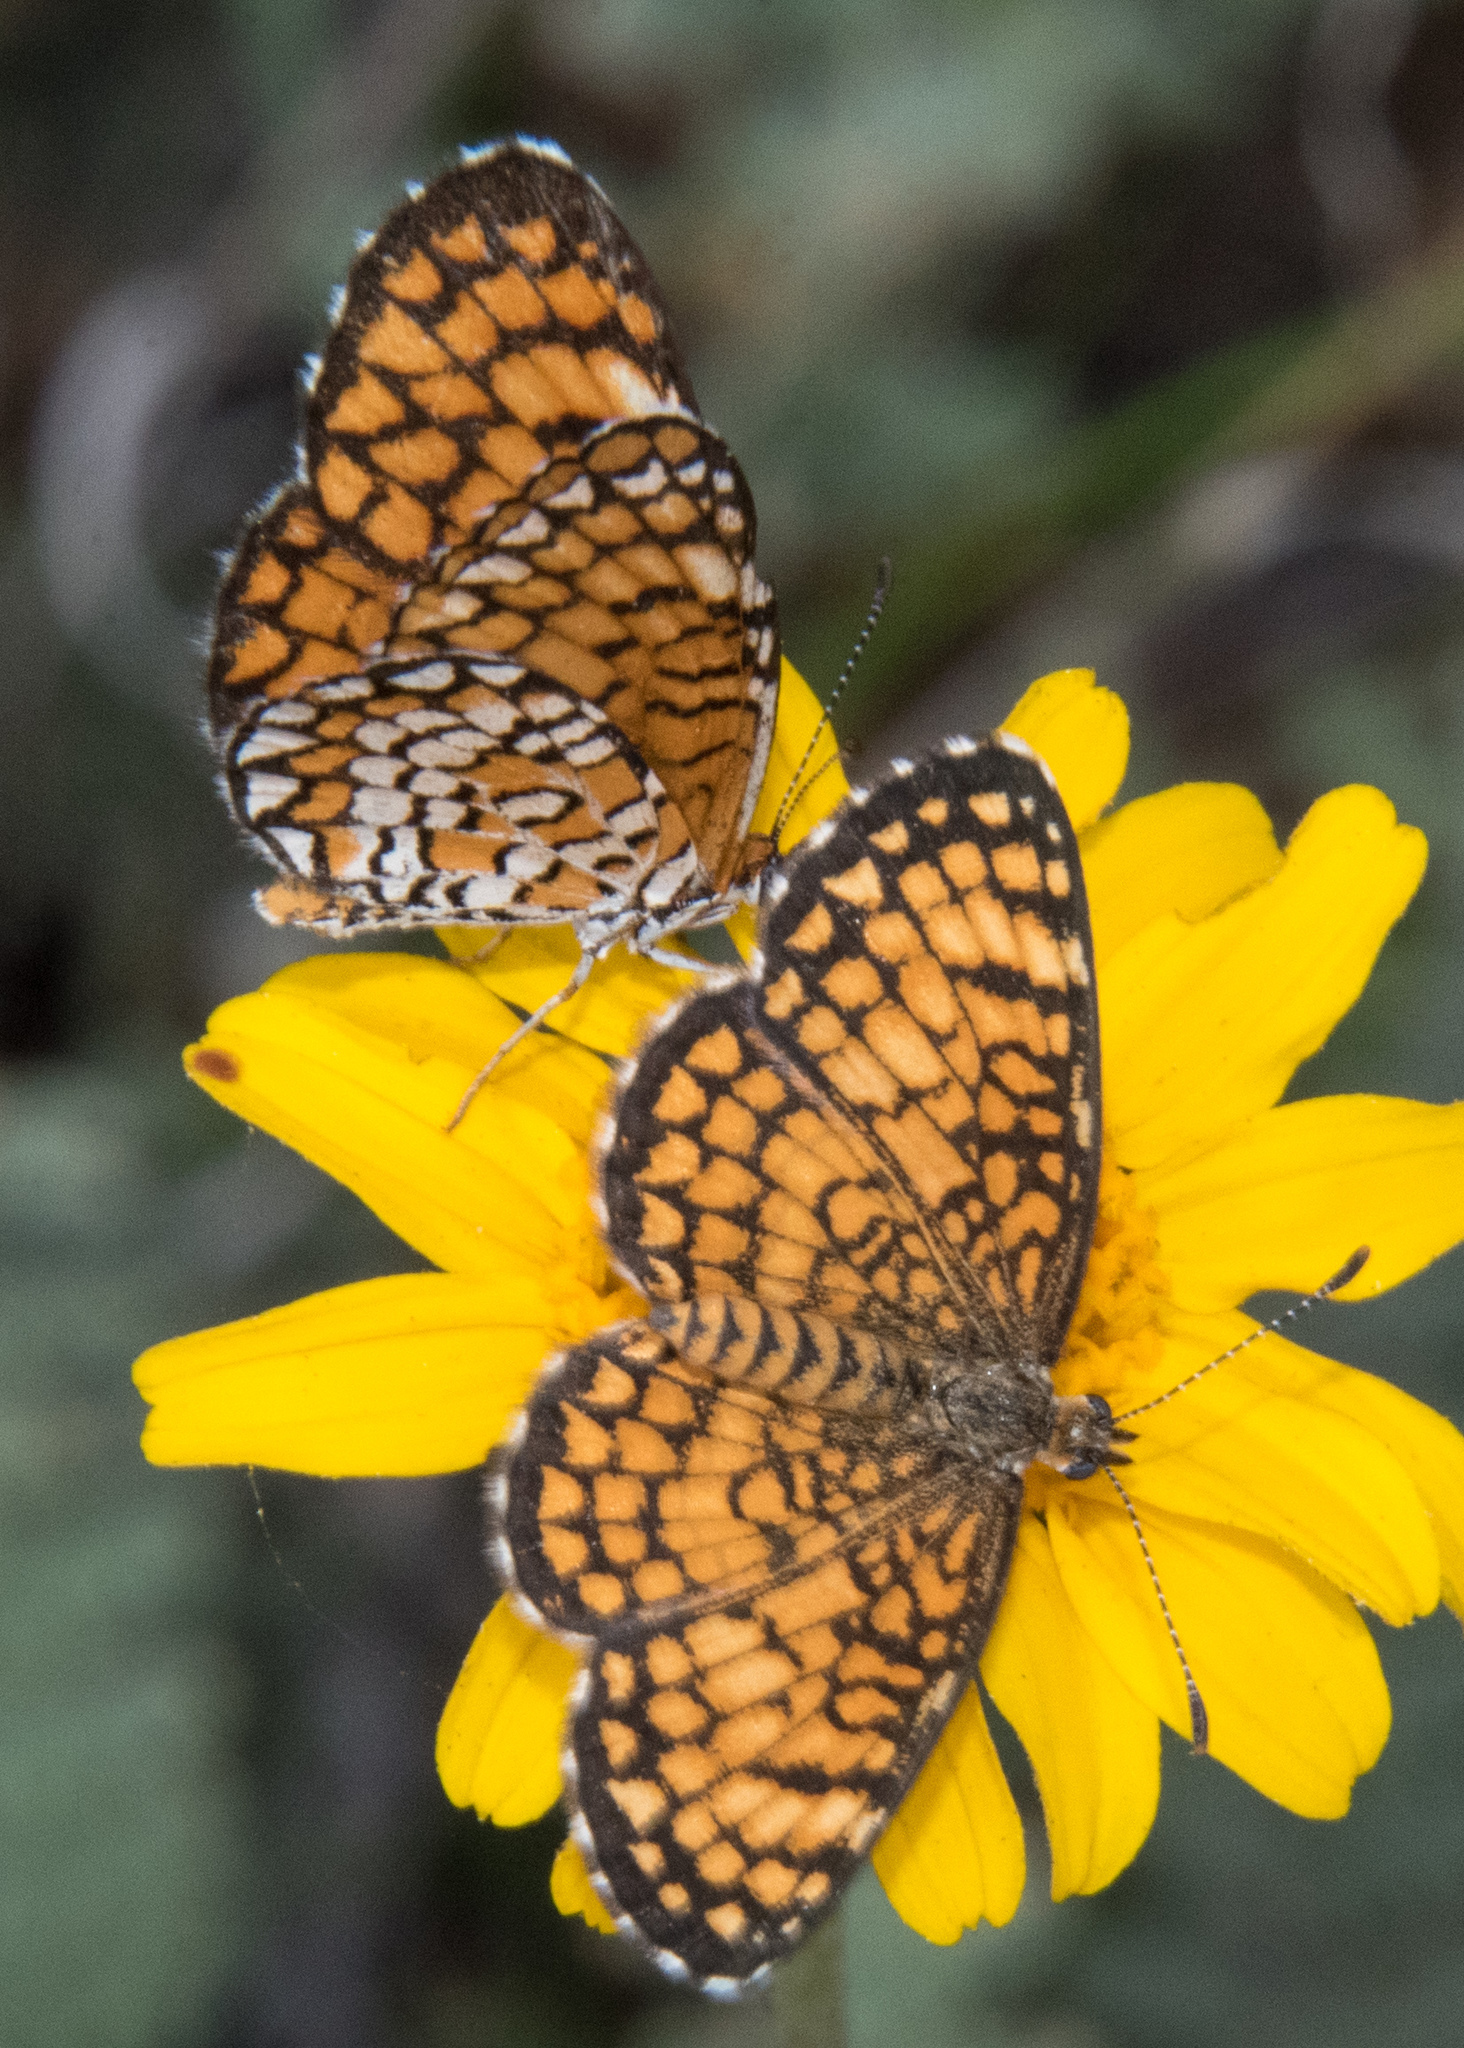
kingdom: Animalia
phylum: Arthropoda
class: Insecta
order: Lepidoptera
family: Nymphalidae
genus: Dymasia
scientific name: Dymasia dymas
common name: Tiny checkerspot
